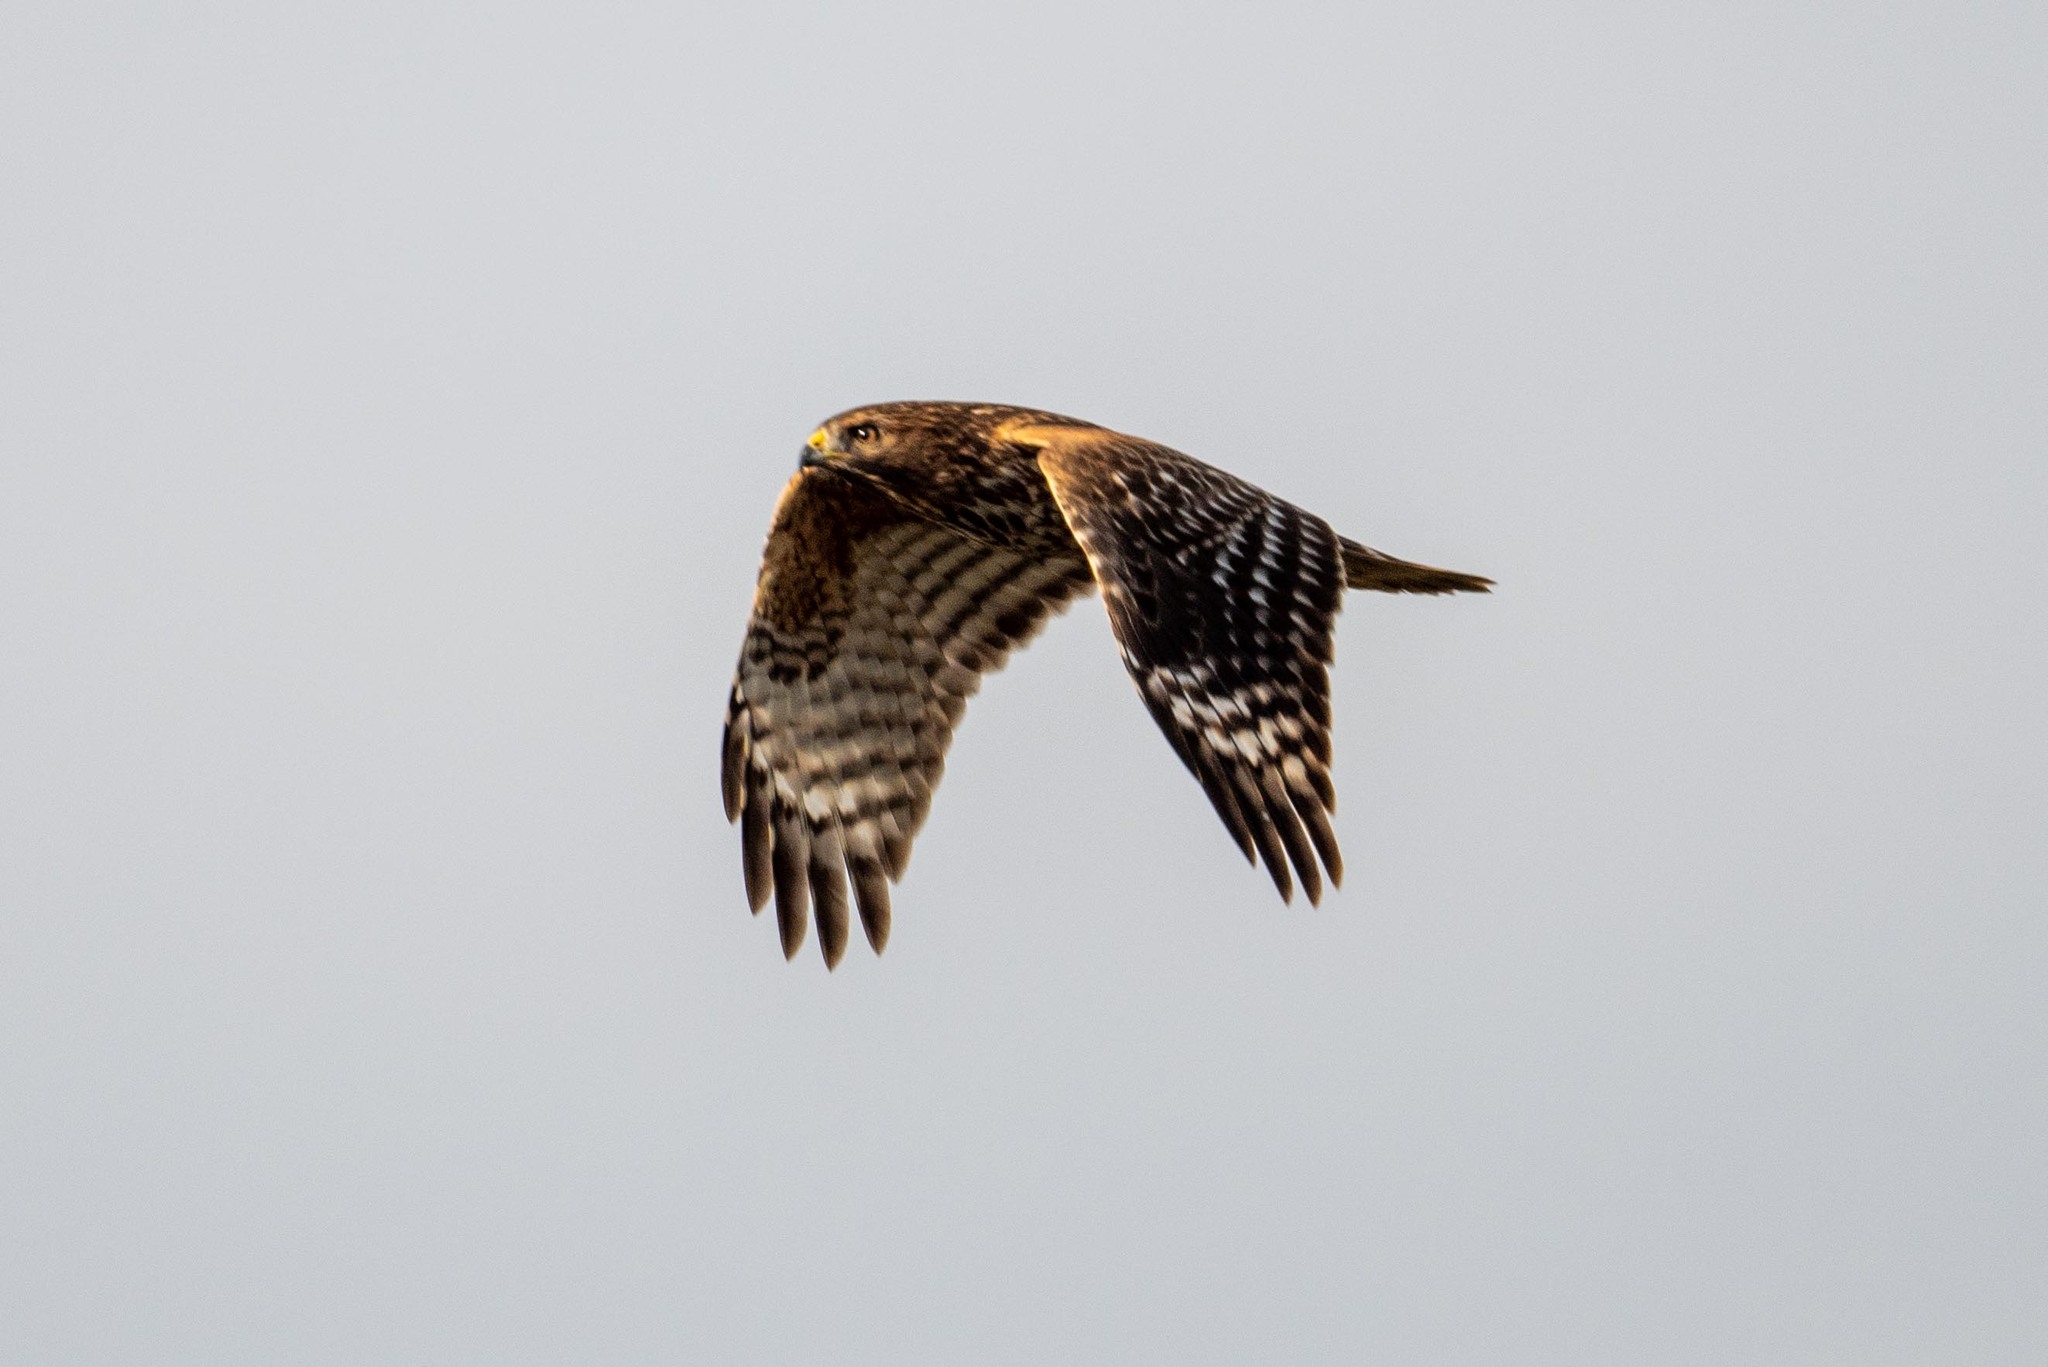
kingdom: Animalia
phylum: Chordata
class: Aves
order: Accipitriformes
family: Accipitridae
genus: Buteo
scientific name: Buteo lineatus
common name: Red-shouldered hawk
